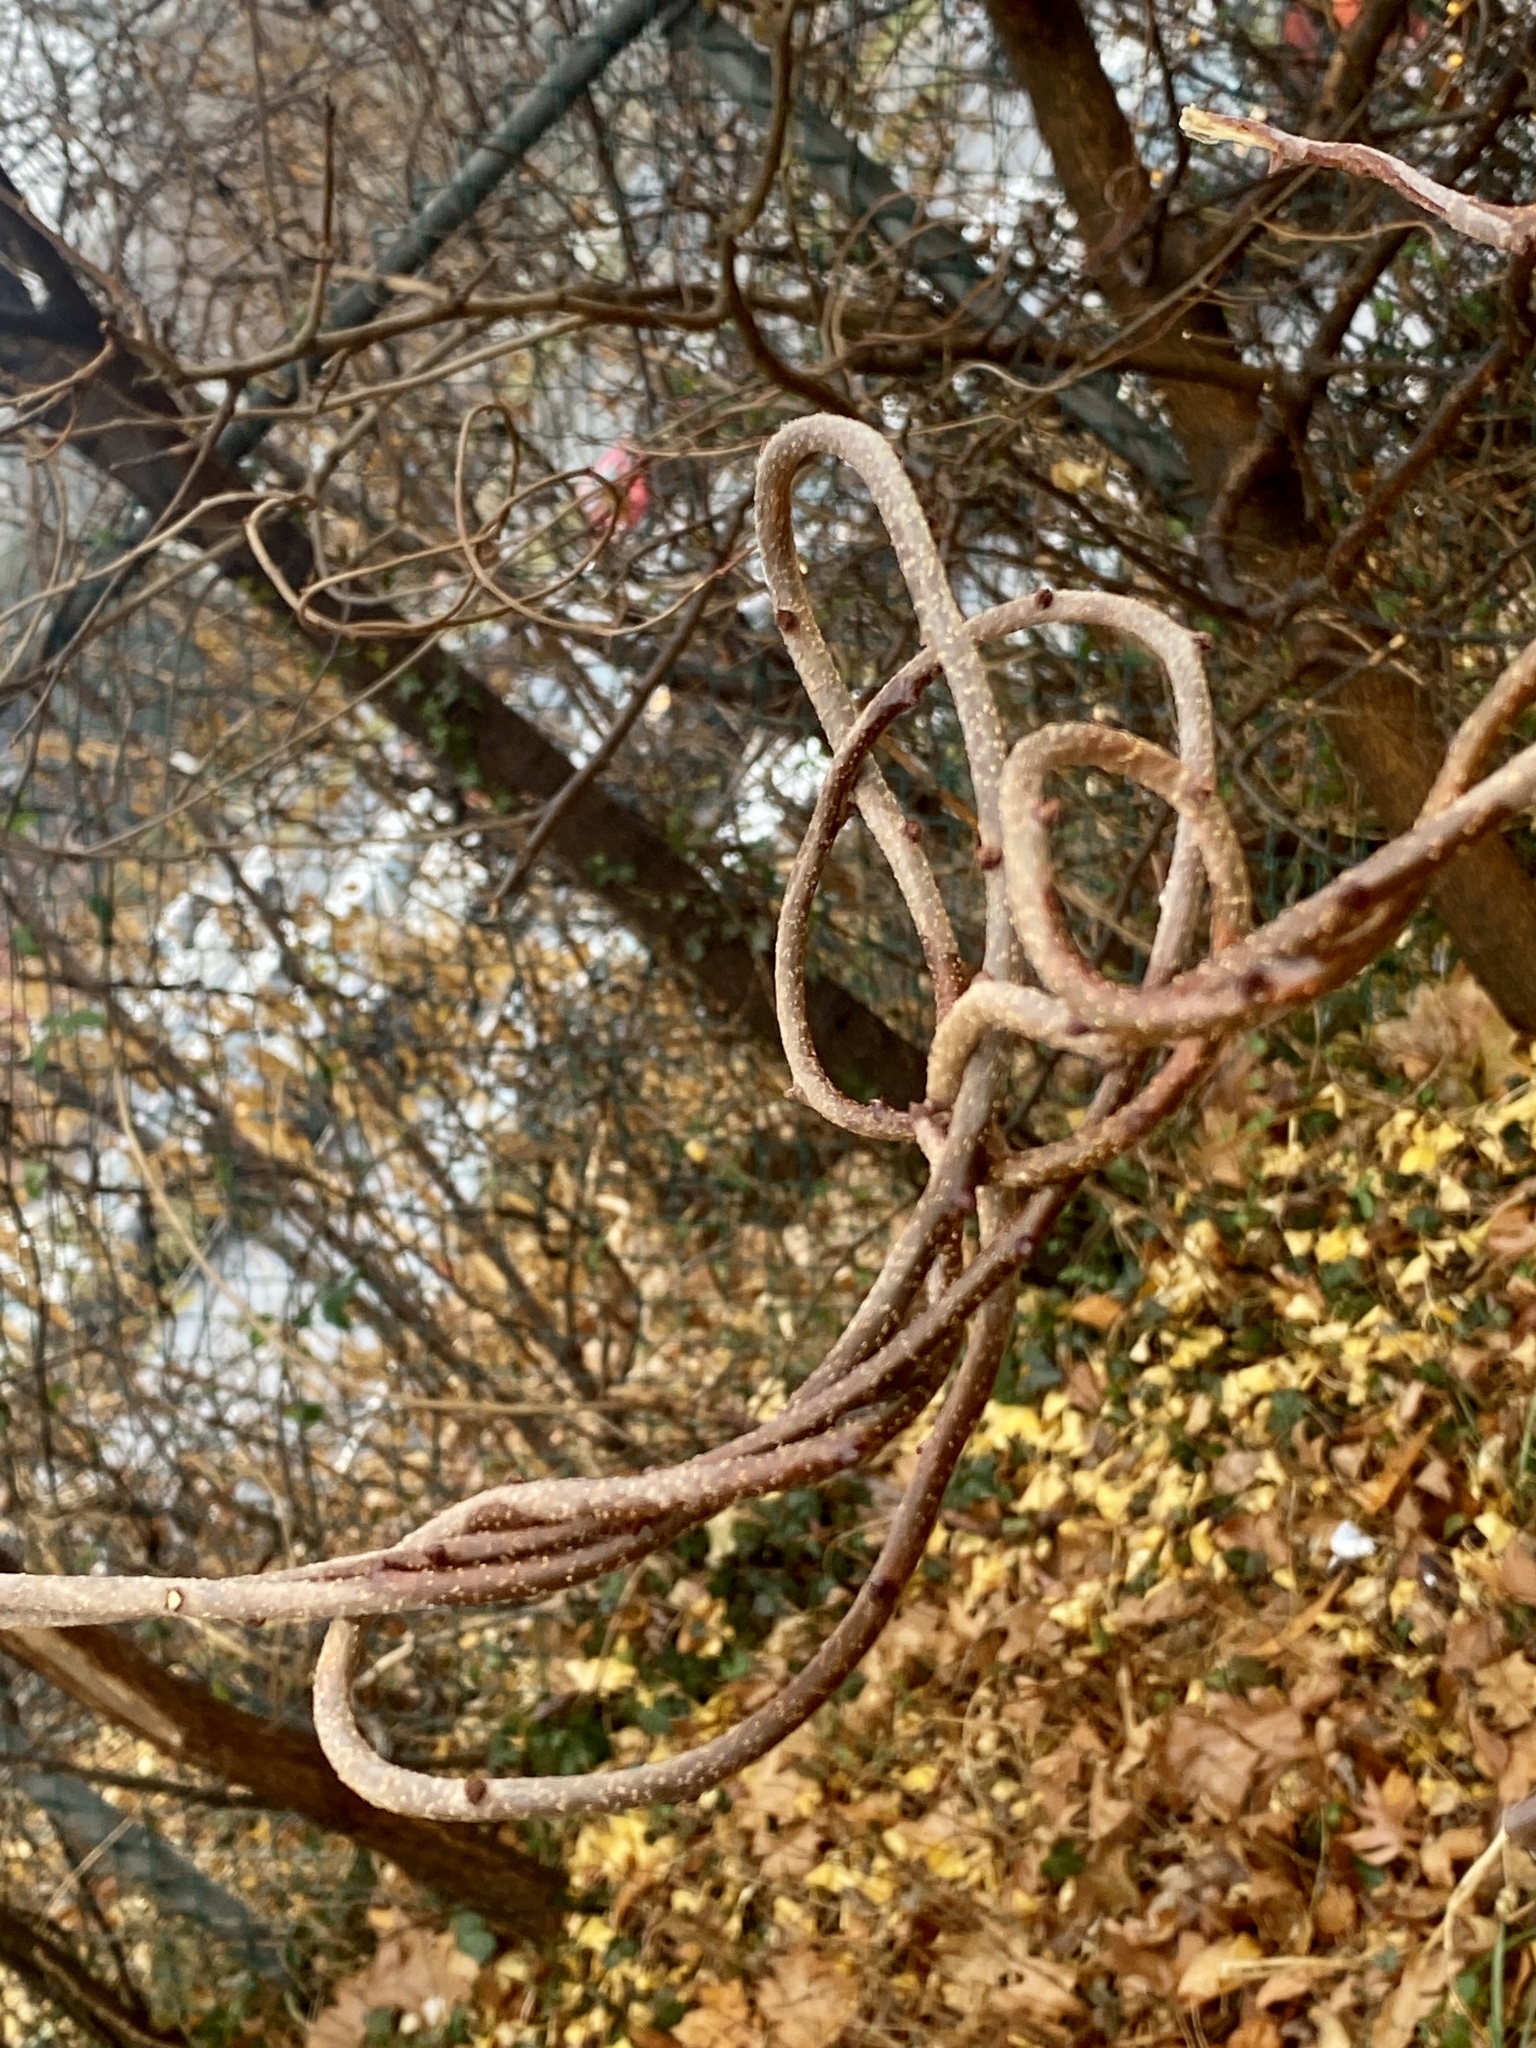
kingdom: Plantae
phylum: Tracheophyta
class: Magnoliopsida
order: Celastrales
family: Celastraceae
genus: Celastrus
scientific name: Celastrus orbiculatus
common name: Oriental bittersweet
